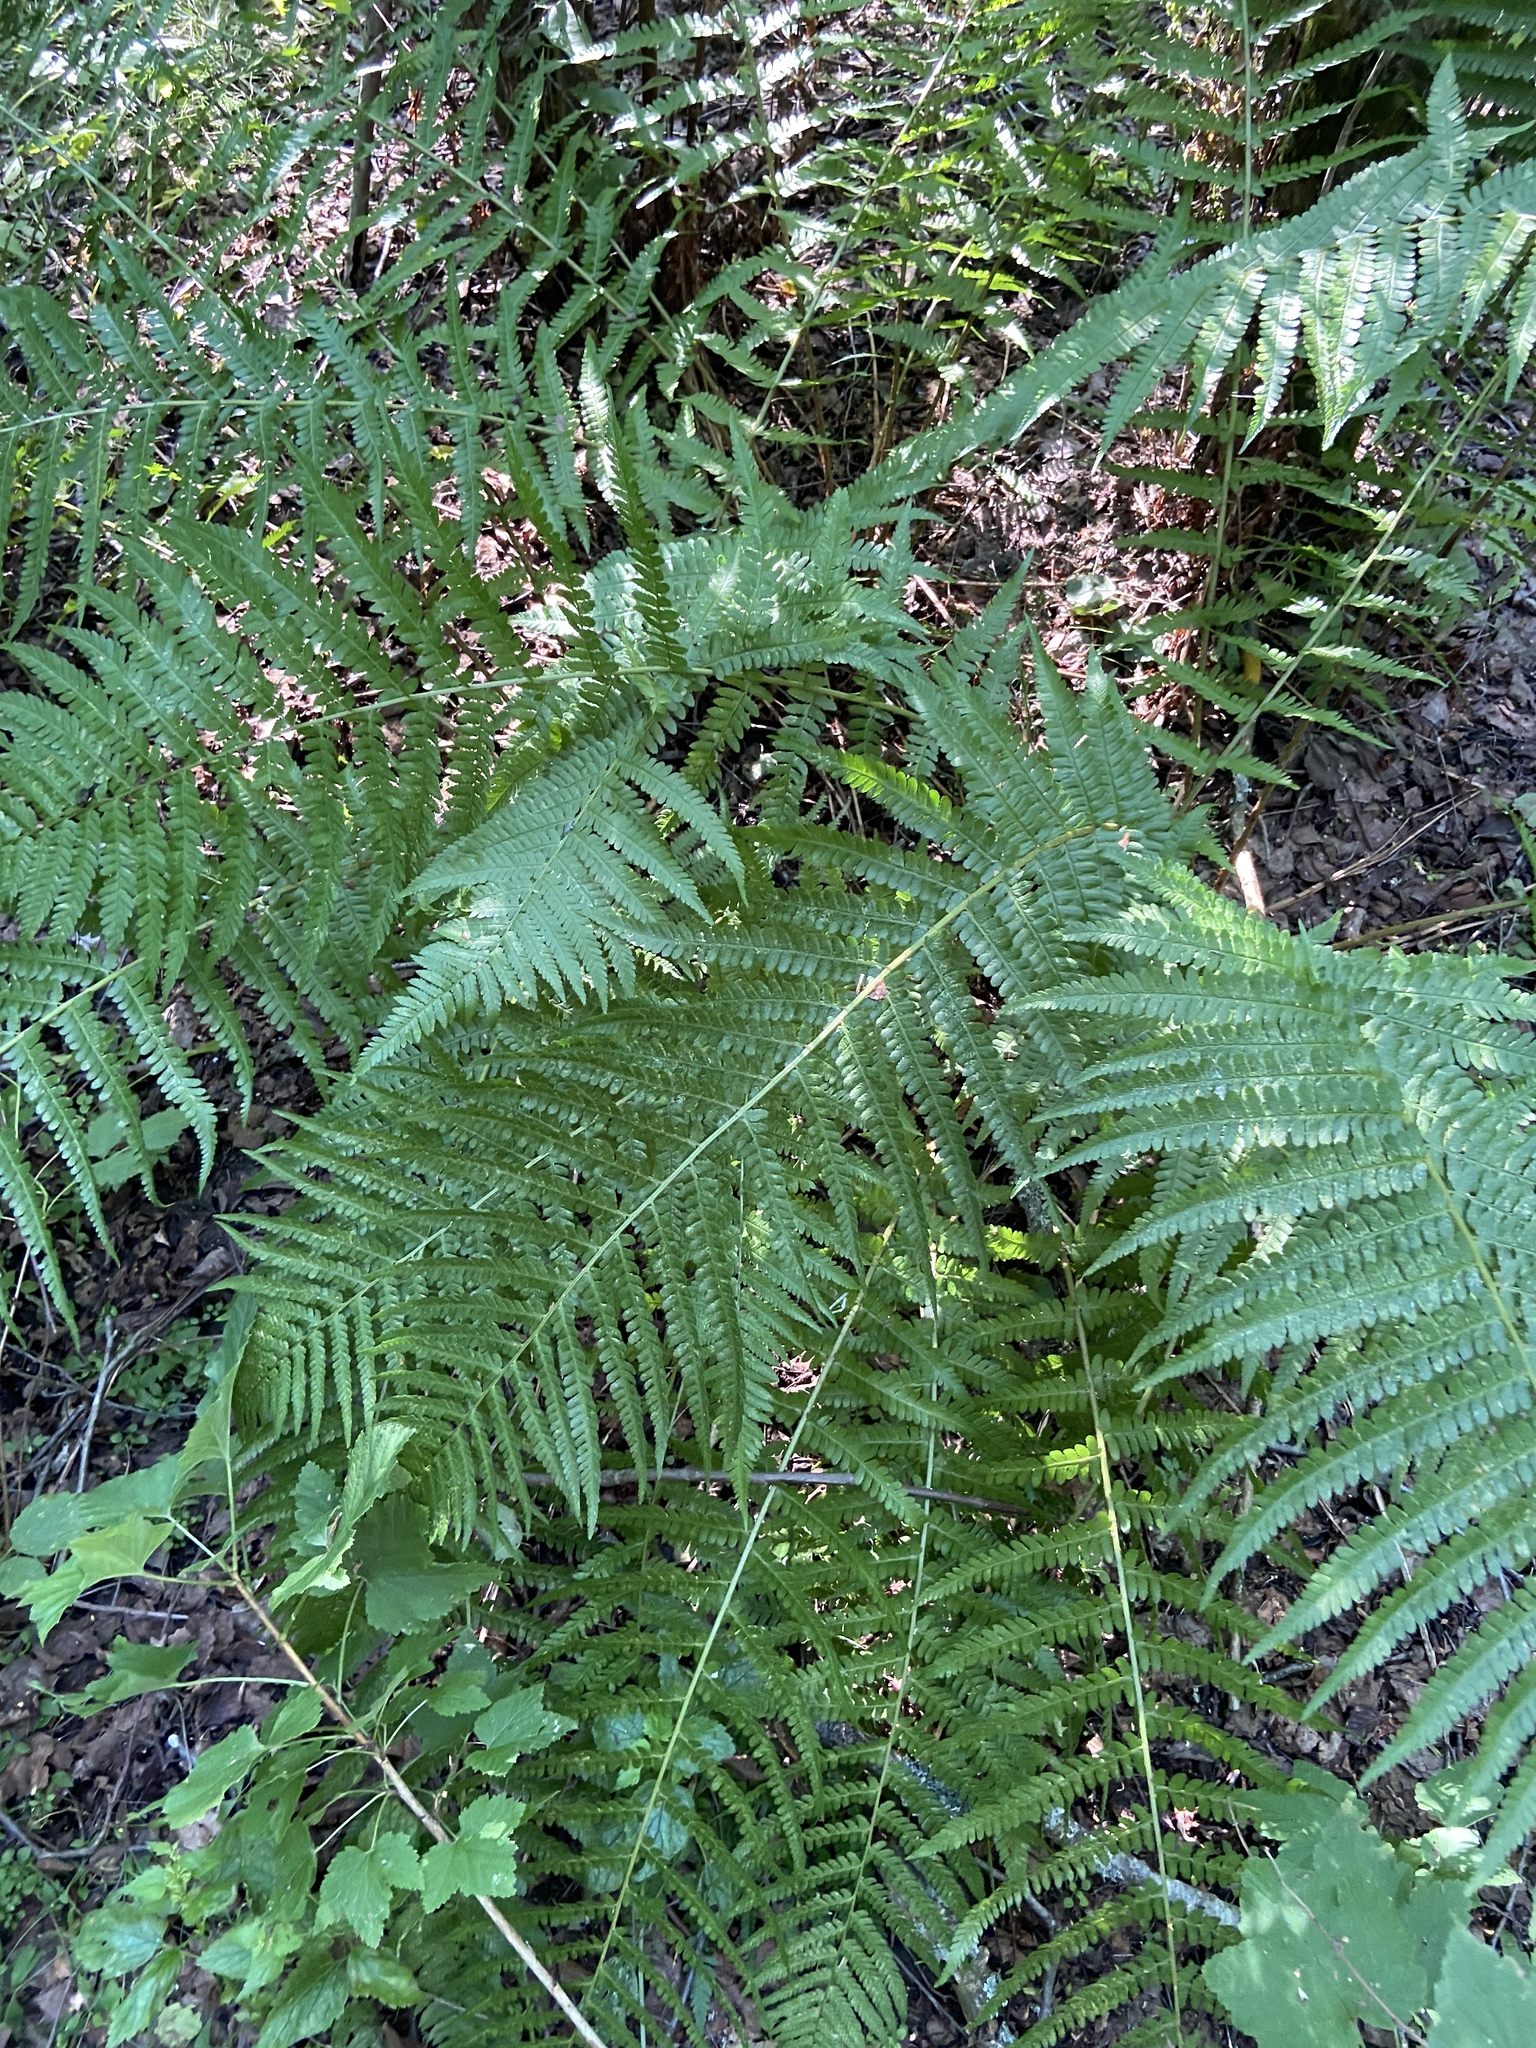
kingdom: Plantae
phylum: Tracheophyta
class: Polypodiopsida
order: Polypodiales
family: Dryopteridaceae
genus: Dryopteris
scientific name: Dryopteris filix-mas
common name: Male fern
